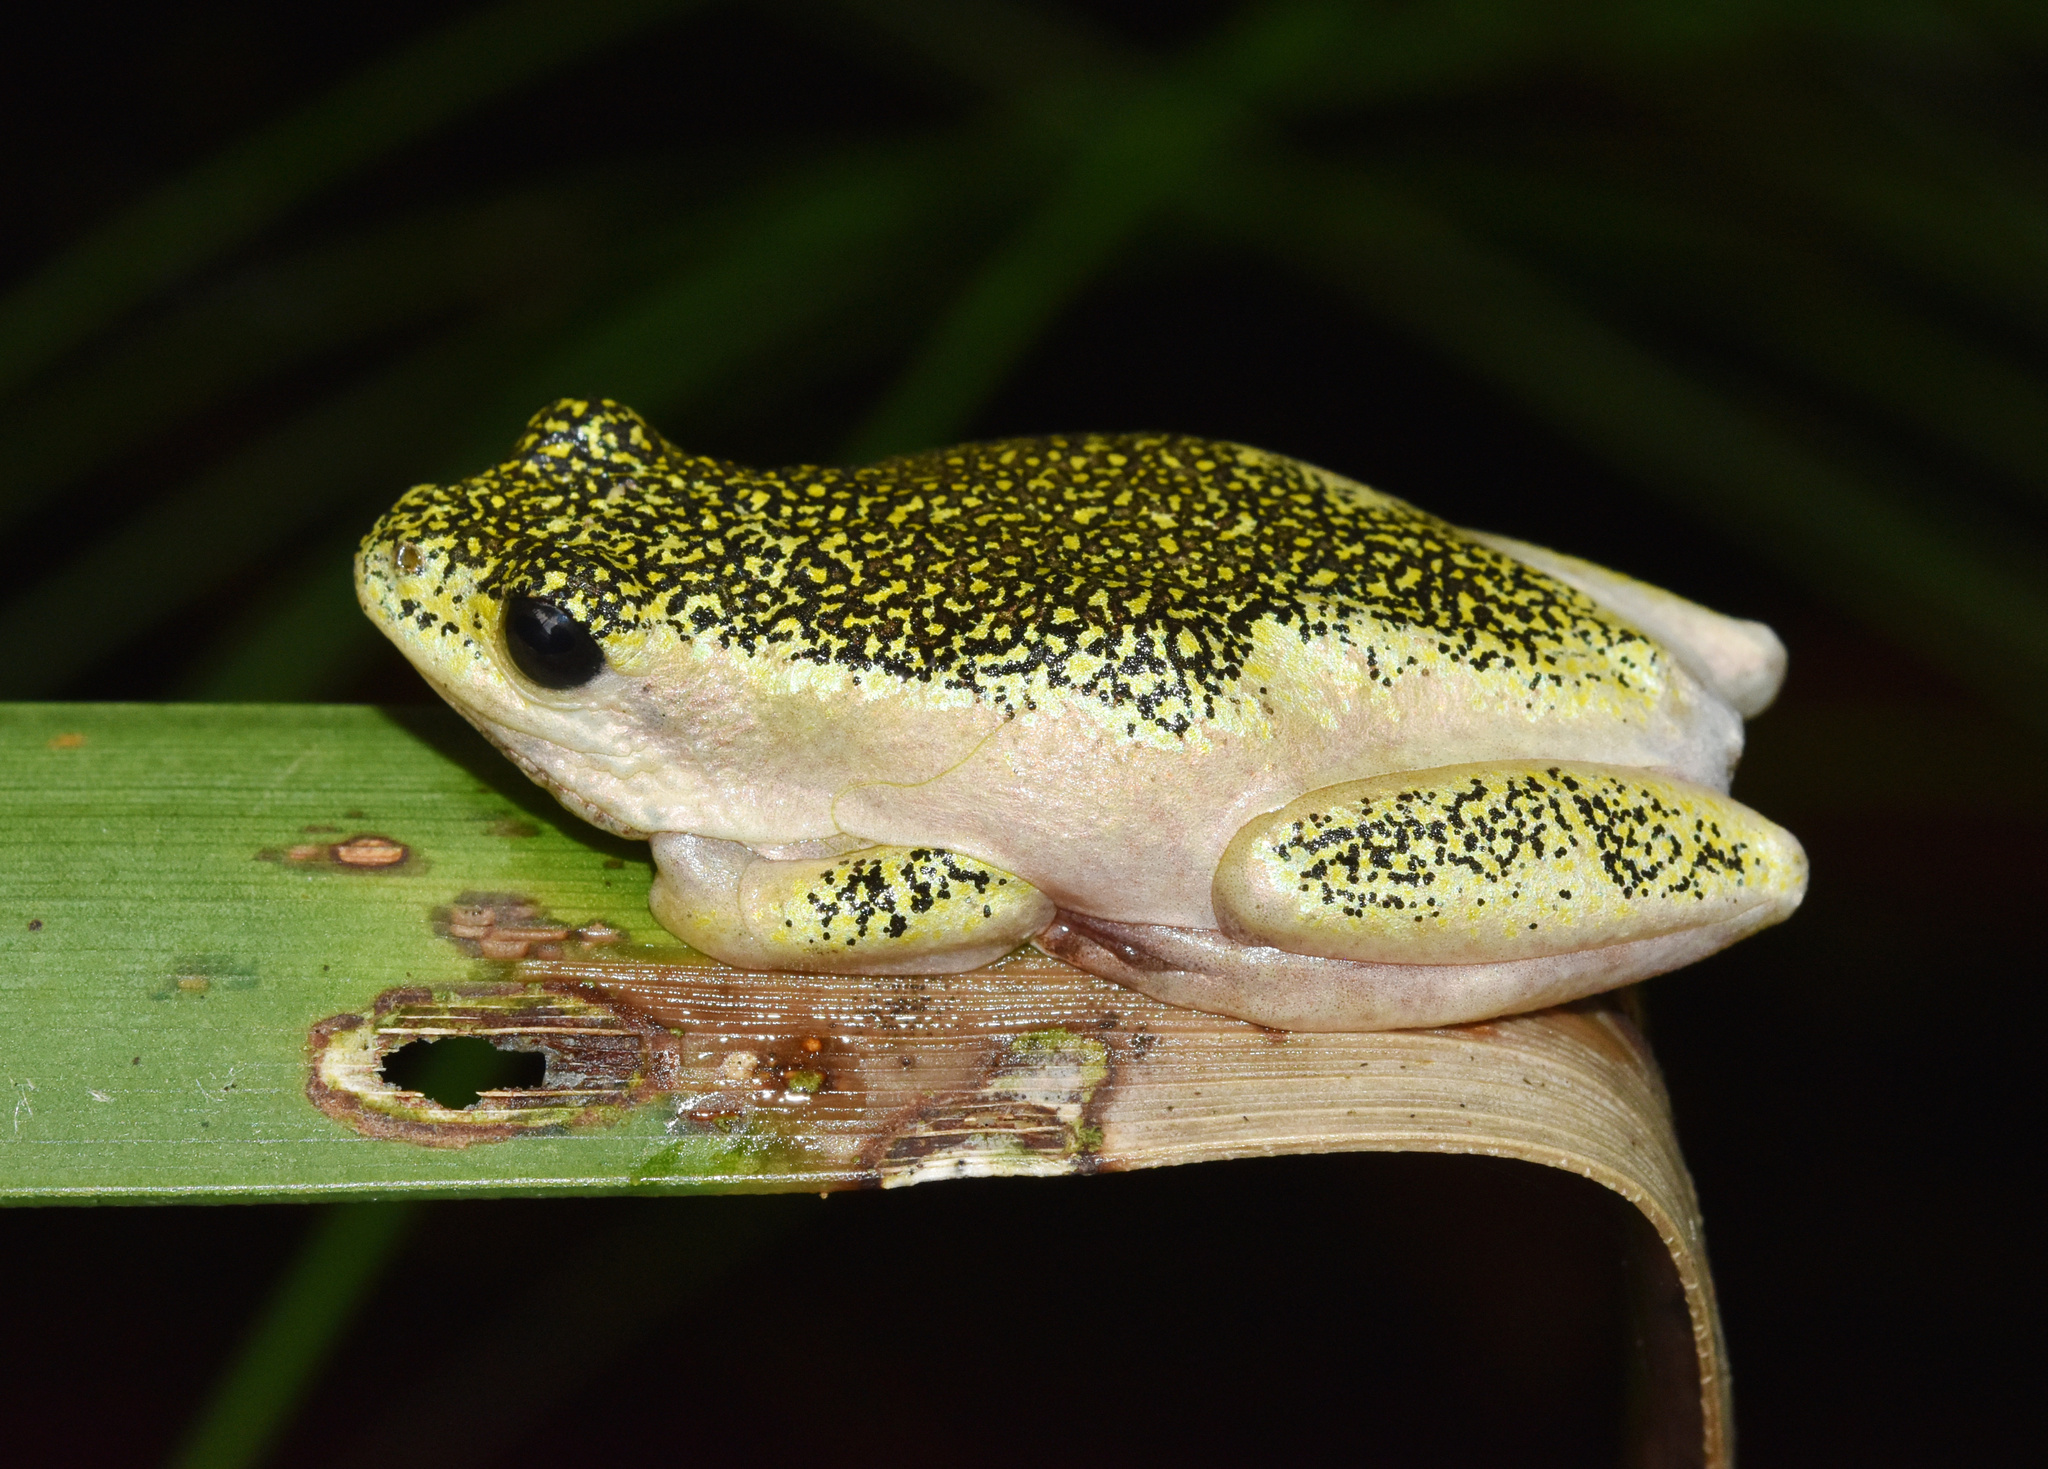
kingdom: Animalia
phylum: Chordata
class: Amphibia
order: Anura
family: Hyperoliidae
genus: Hyperolius
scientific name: Hyperolius marmoratus
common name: Painted reed frog
